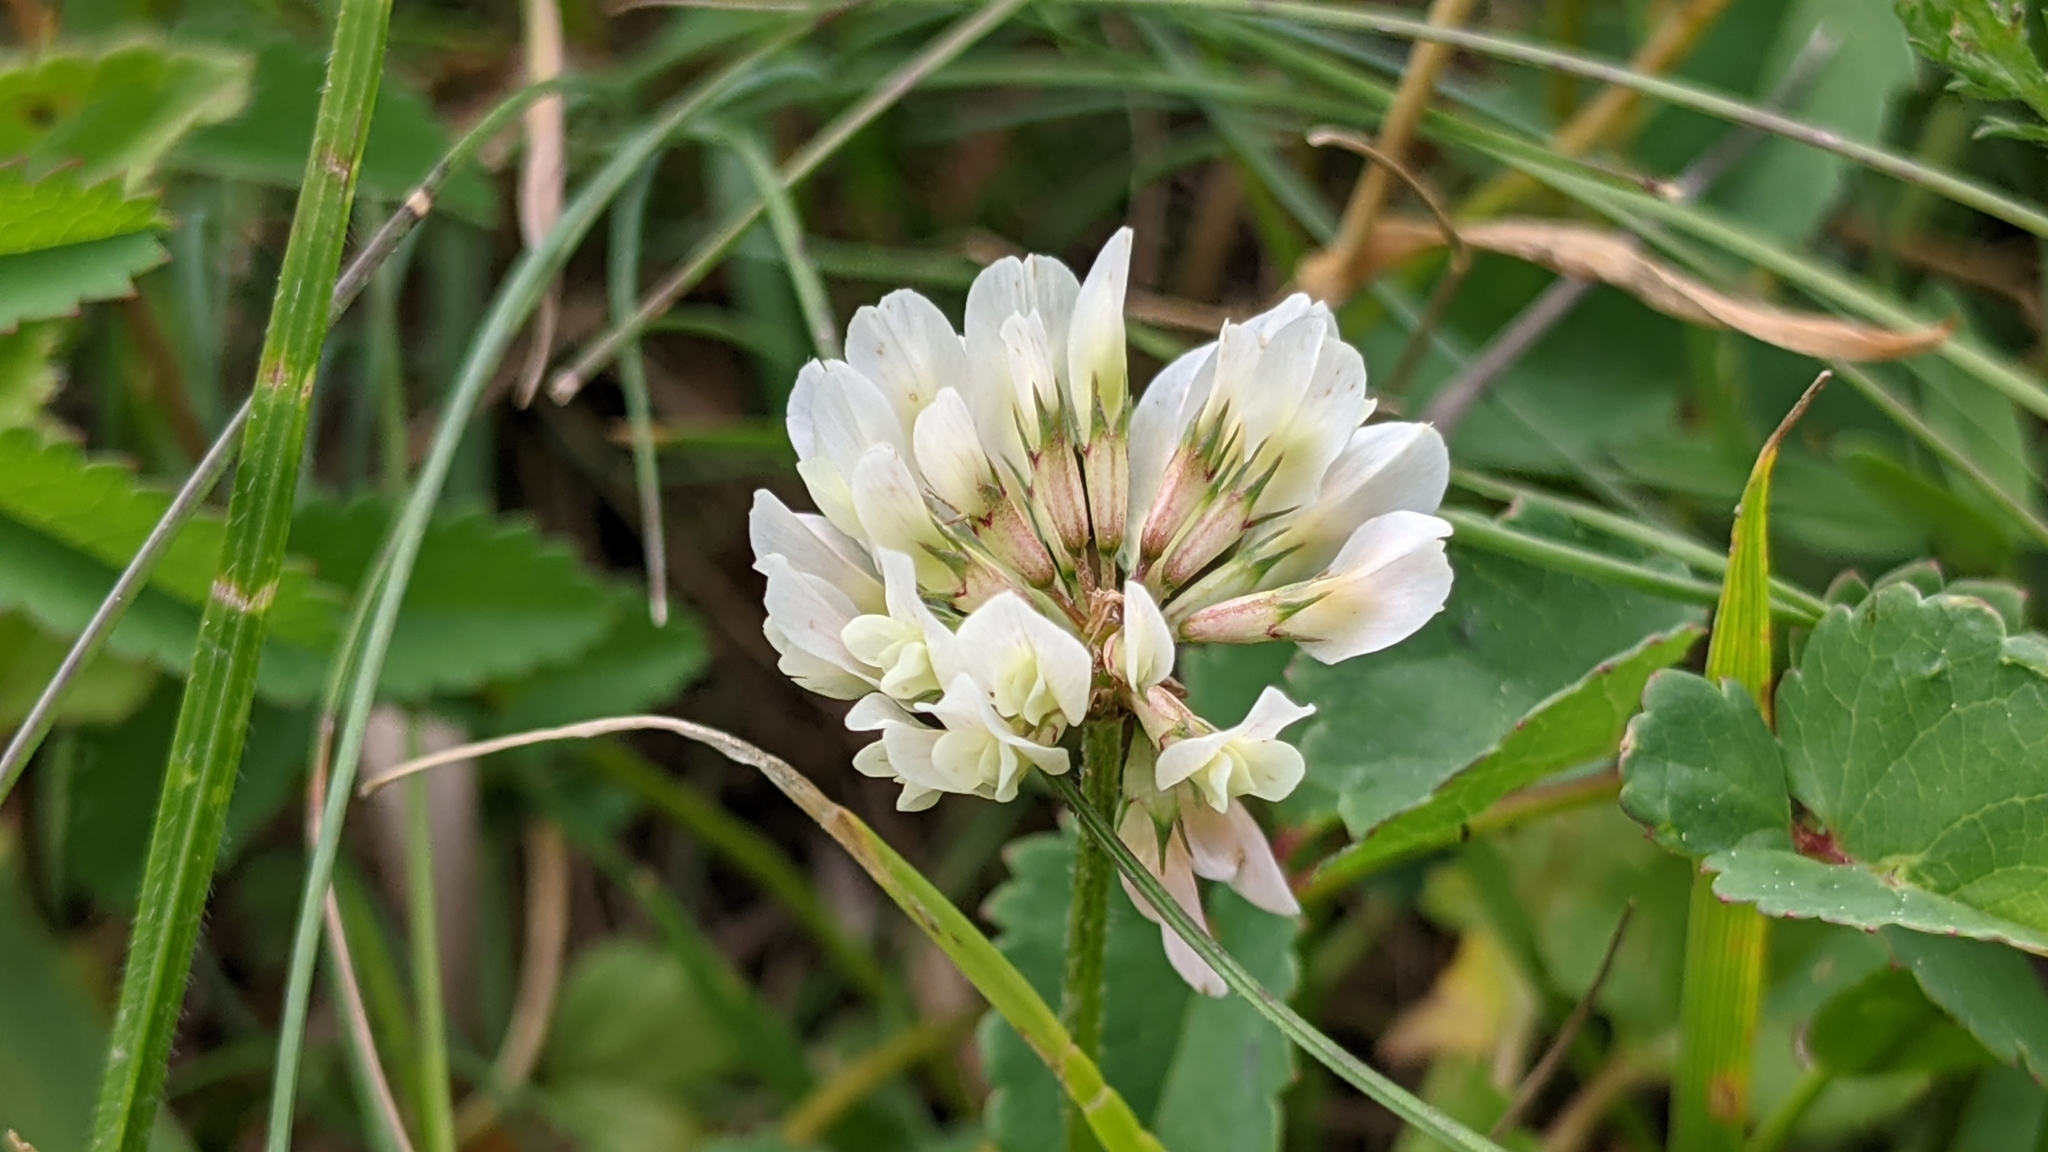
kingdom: Plantae
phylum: Tracheophyta
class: Magnoliopsida
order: Fabales
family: Fabaceae
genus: Trifolium
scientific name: Trifolium repens
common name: White clover
